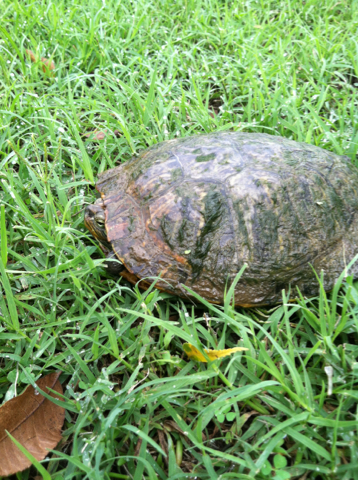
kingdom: Animalia
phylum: Chordata
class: Testudines
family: Emydidae
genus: Trachemys
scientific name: Trachemys scripta
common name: Slider
